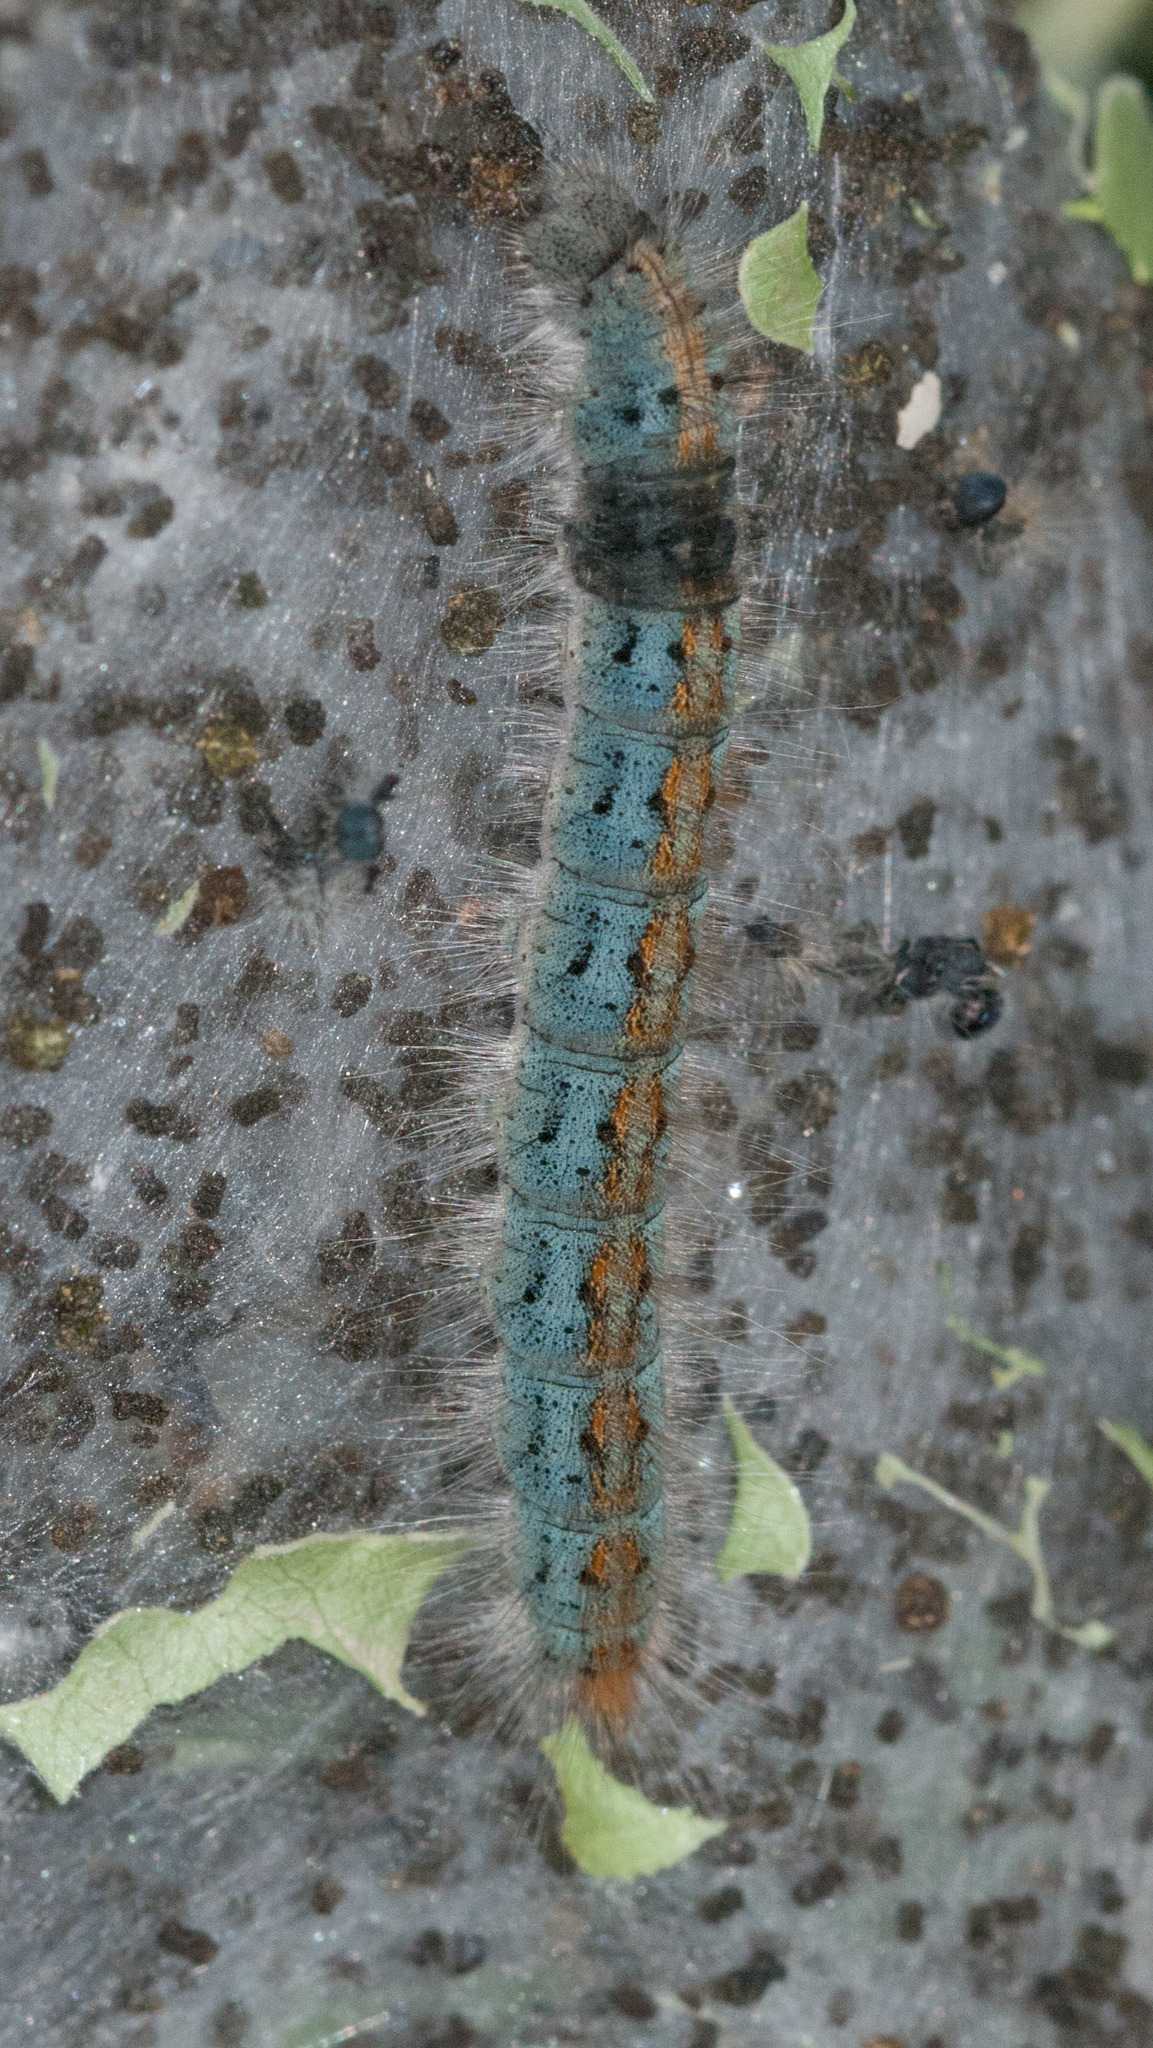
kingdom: Animalia
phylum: Arthropoda
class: Insecta
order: Lepidoptera
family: Lasiocampidae
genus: Malacosoma
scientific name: Malacosoma incurva
